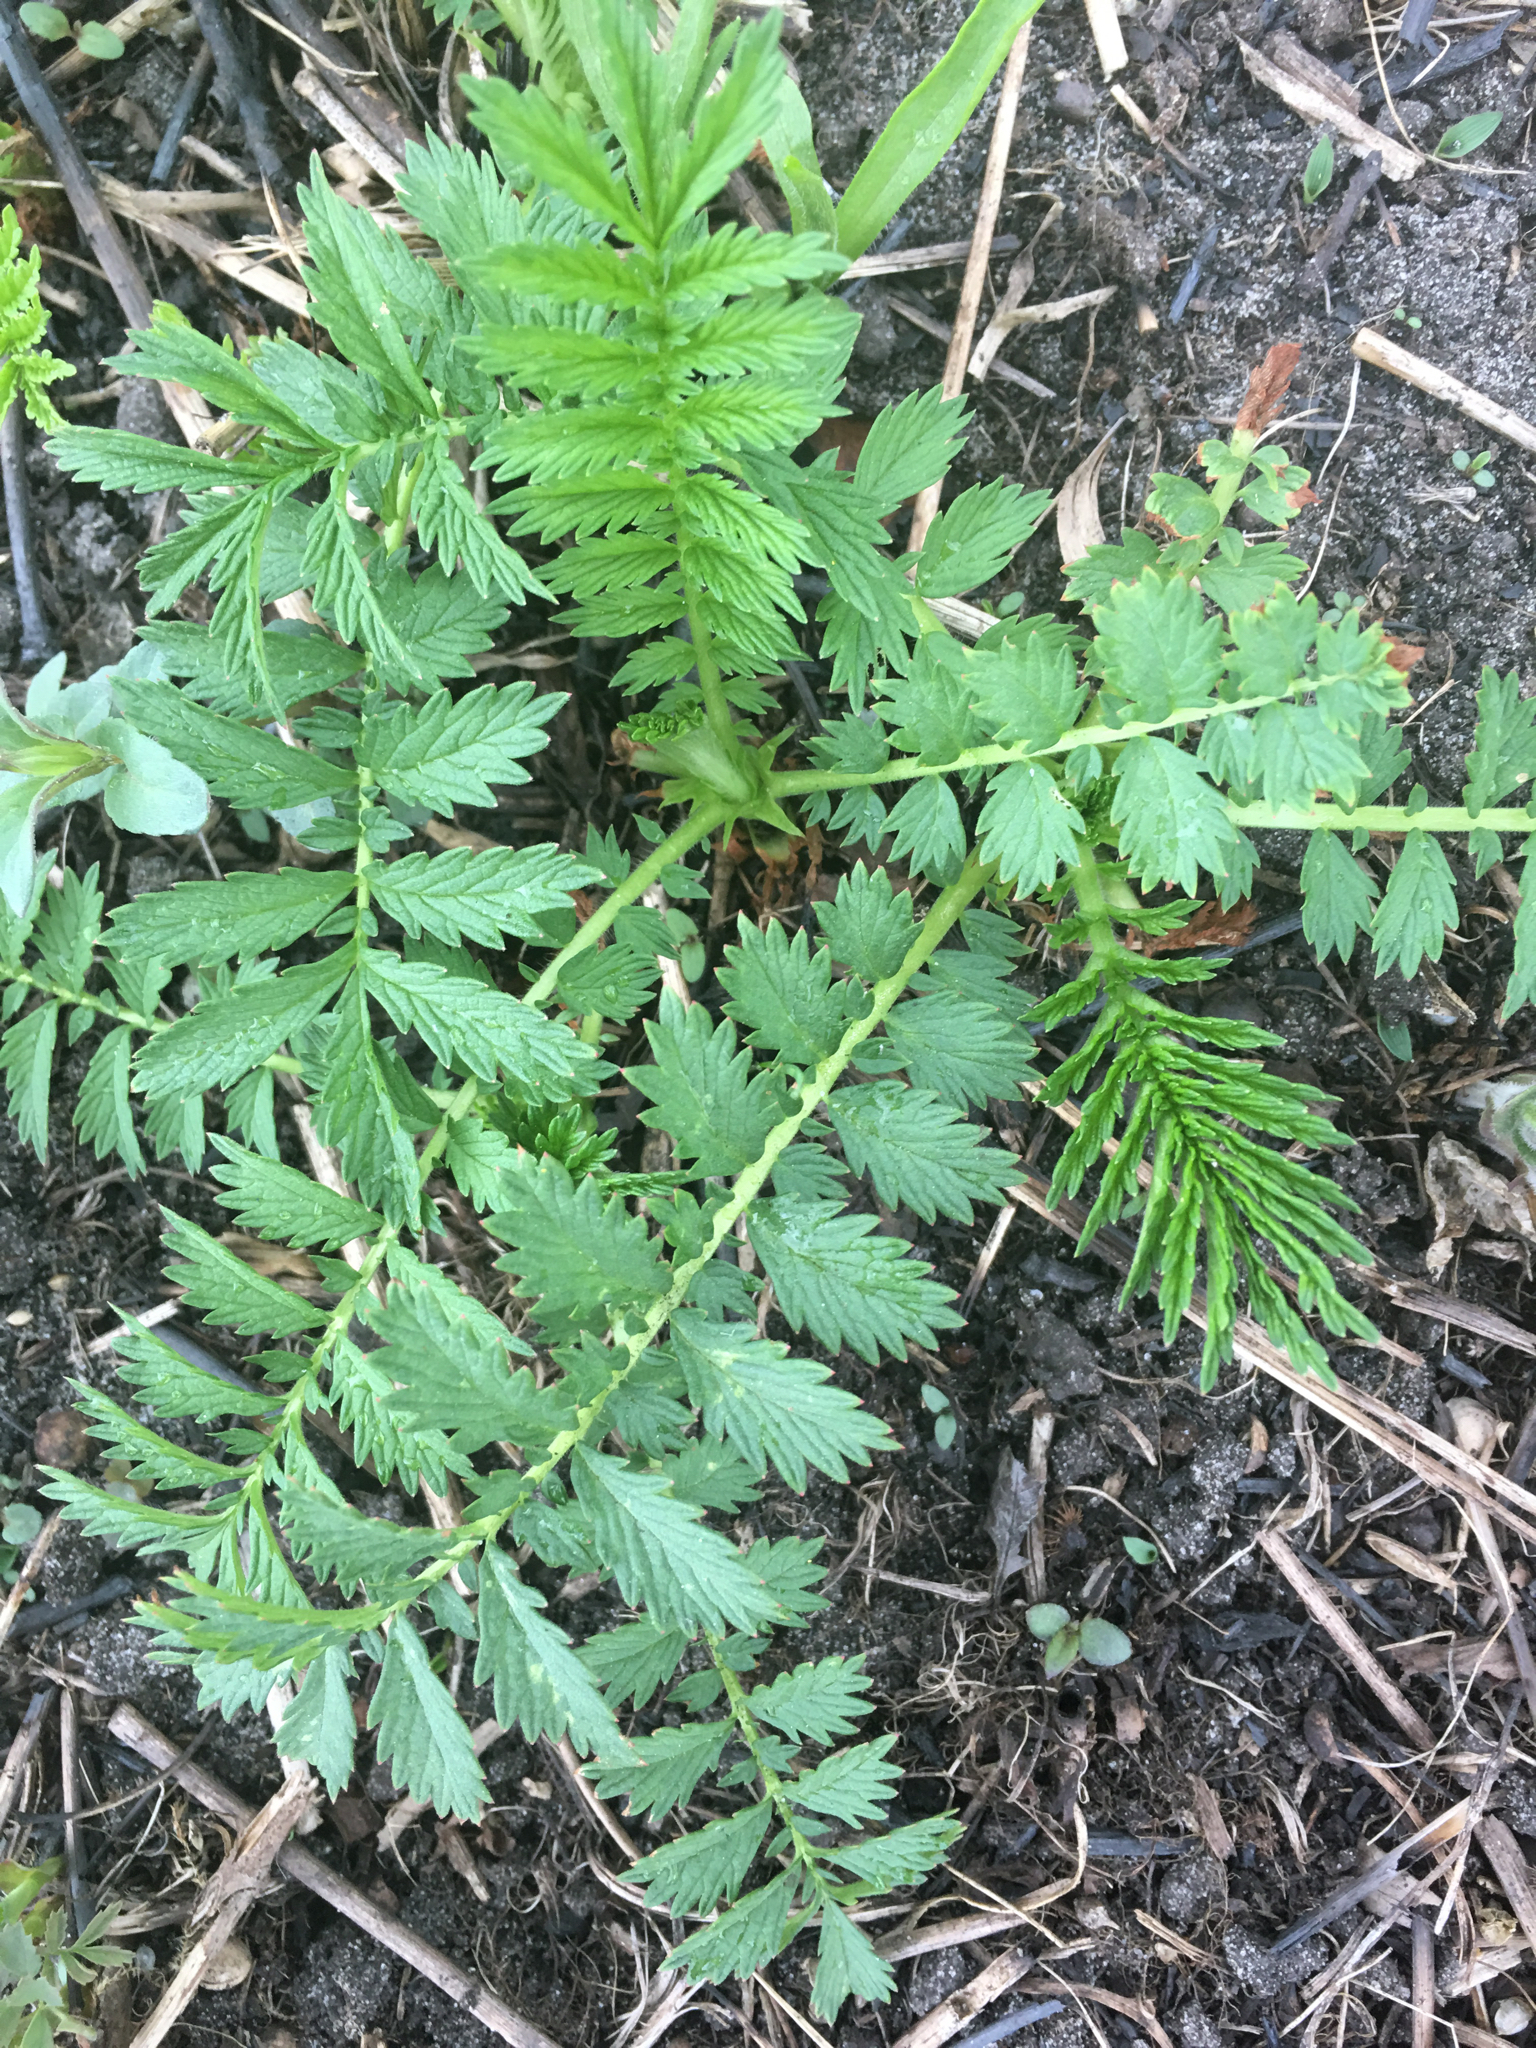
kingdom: Plantae
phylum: Tracheophyta
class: Magnoliopsida
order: Rosales
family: Rosaceae
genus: Agrimonia
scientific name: Agrimonia parviflora
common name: Harvest-lice
